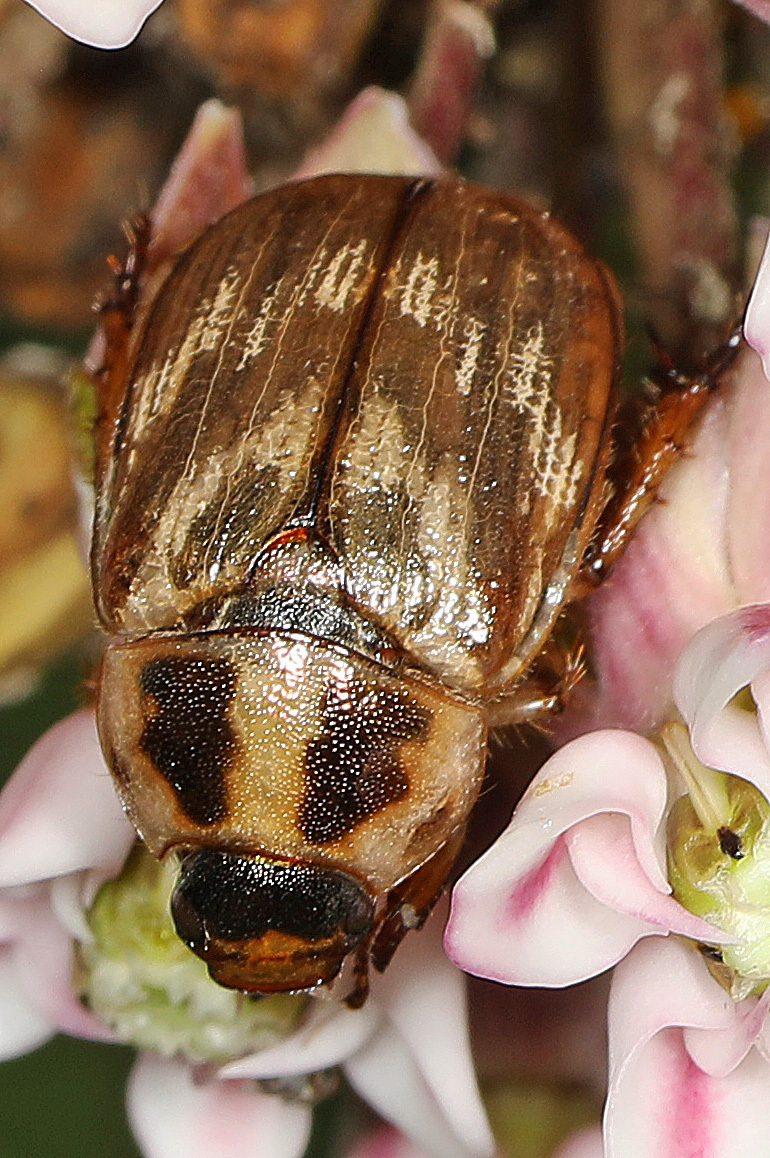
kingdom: Animalia
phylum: Arthropoda
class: Insecta
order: Coleoptera
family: Scarabaeidae
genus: Exomala
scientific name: Exomala orientalis
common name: Oriental beetle
